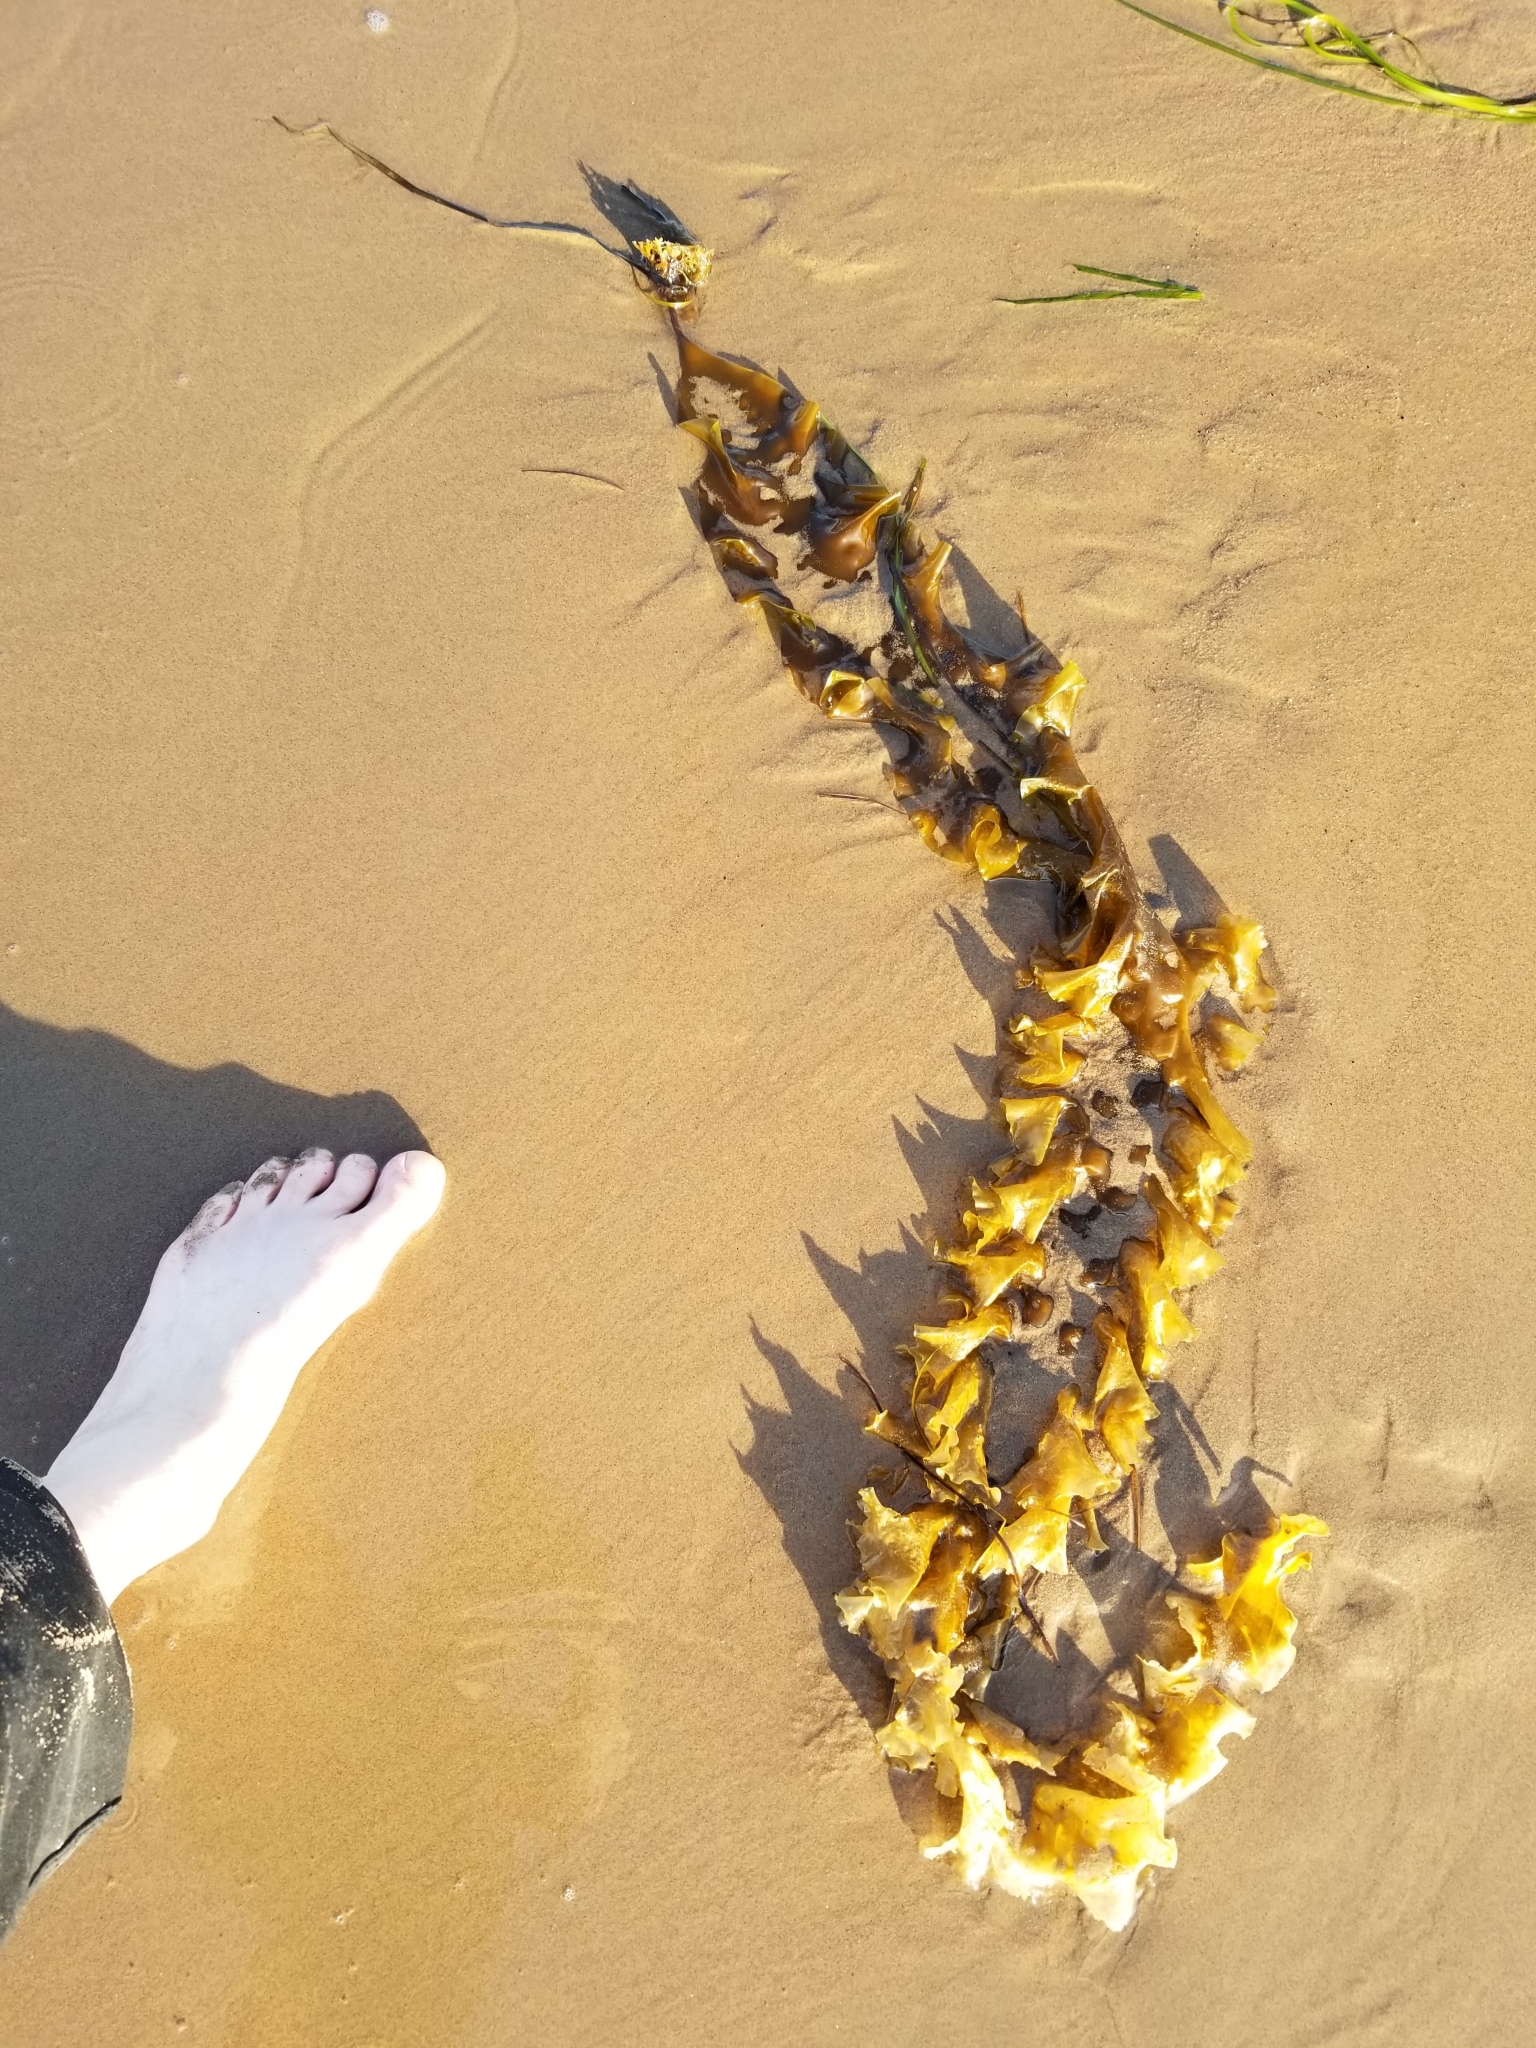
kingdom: Chromista
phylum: Ochrophyta
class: Phaeophyceae
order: Laminariales
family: Laminariaceae
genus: Saccharina
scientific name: Saccharina latissima
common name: Poor man's weather glass
